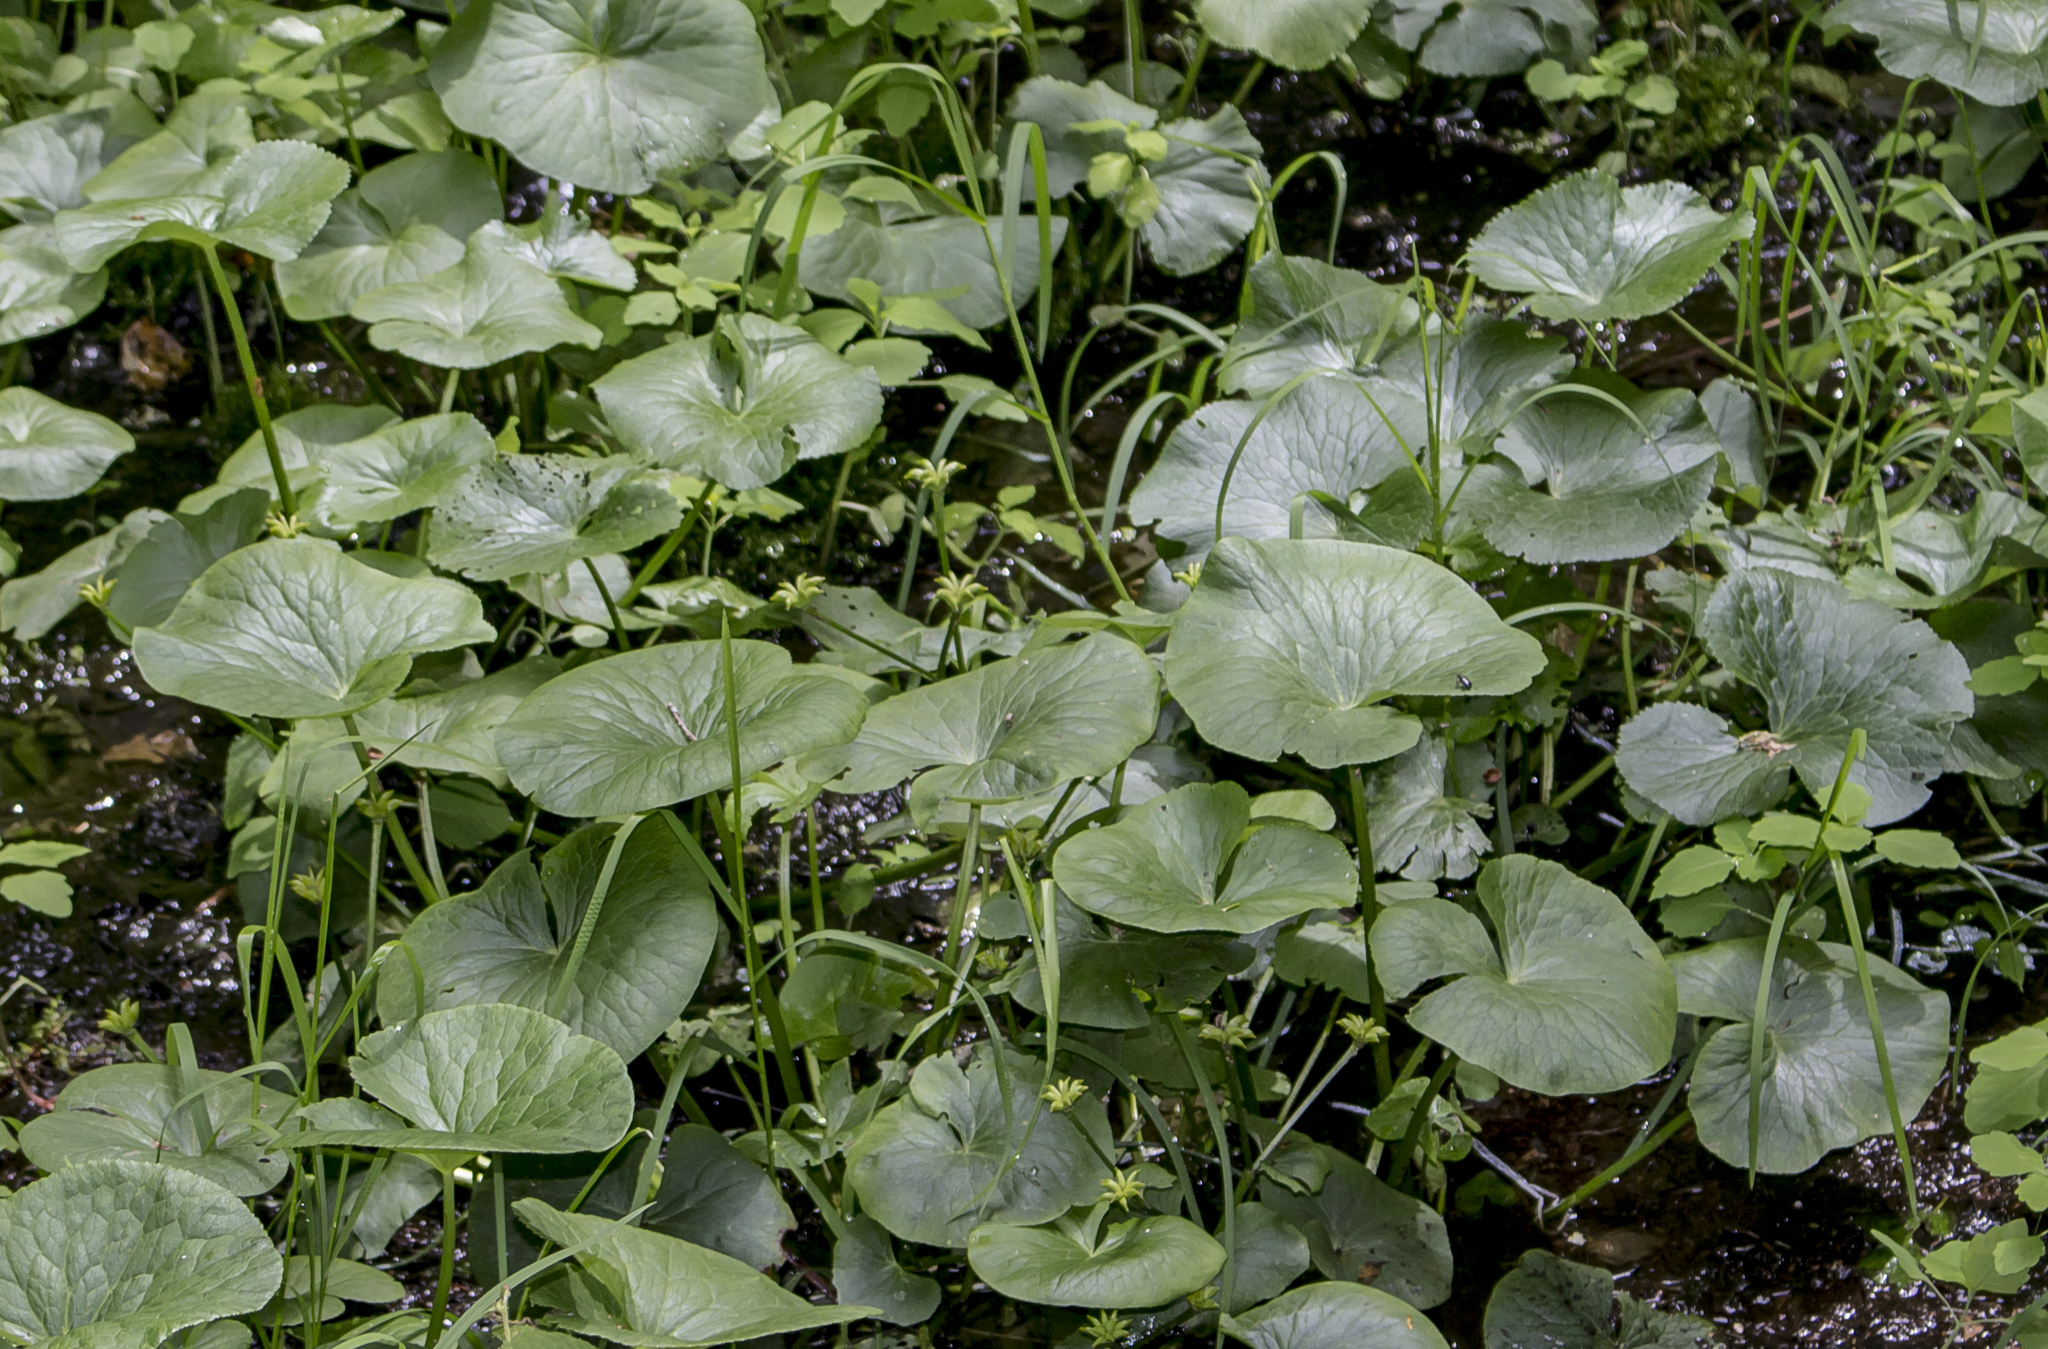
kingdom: Plantae
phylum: Tracheophyta
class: Magnoliopsida
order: Ranunculales
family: Ranunculaceae
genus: Caltha
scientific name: Caltha palustris
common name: Marsh marigold
